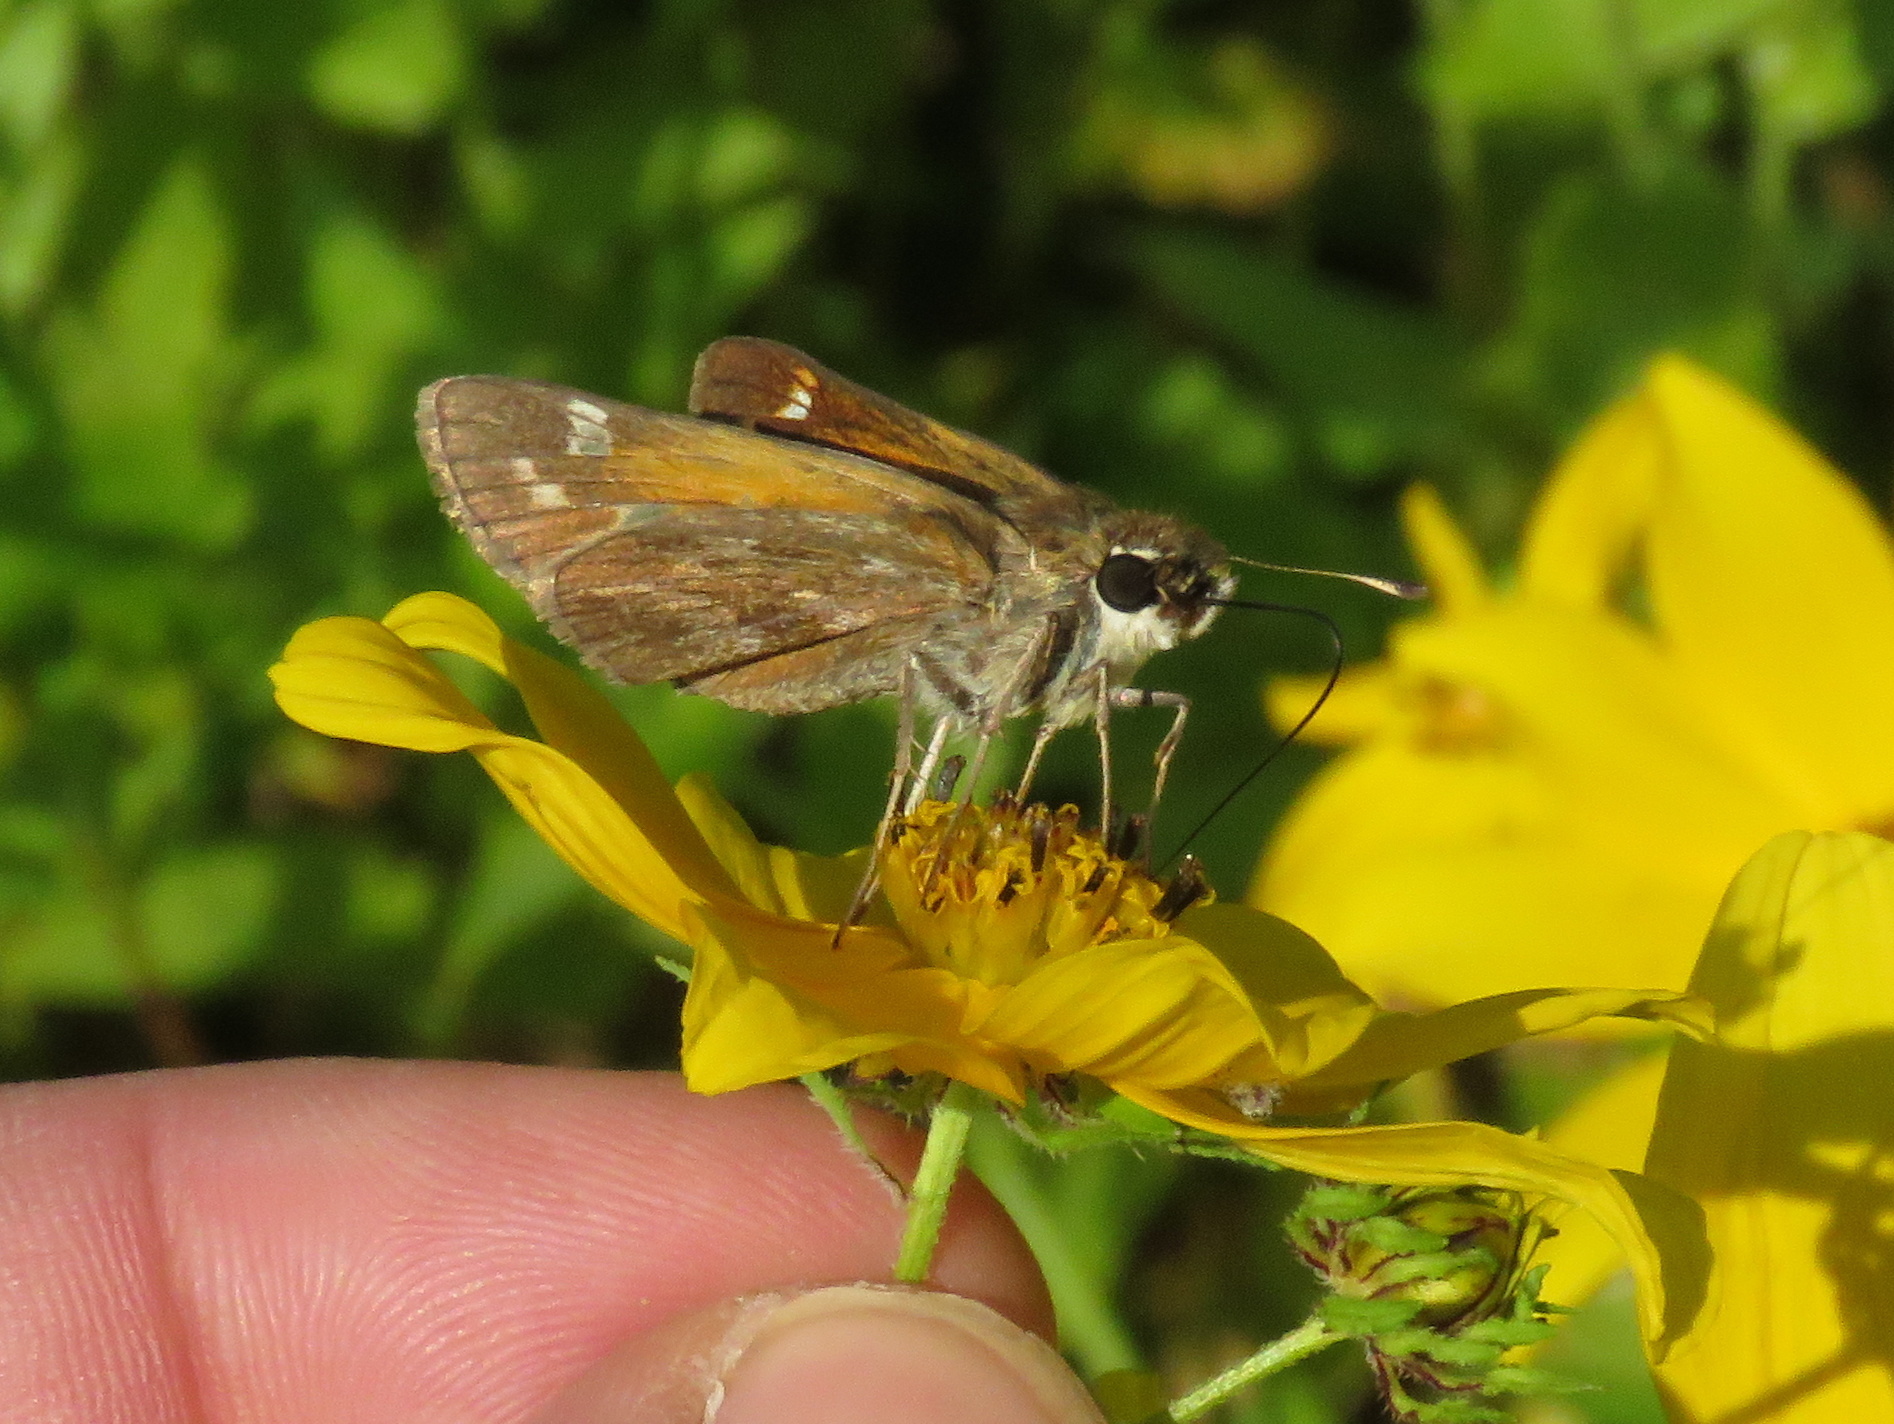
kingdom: Animalia
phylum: Arthropoda
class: Insecta
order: Lepidoptera
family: Hesperiidae
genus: Atalopedes
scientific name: Atalopedes
